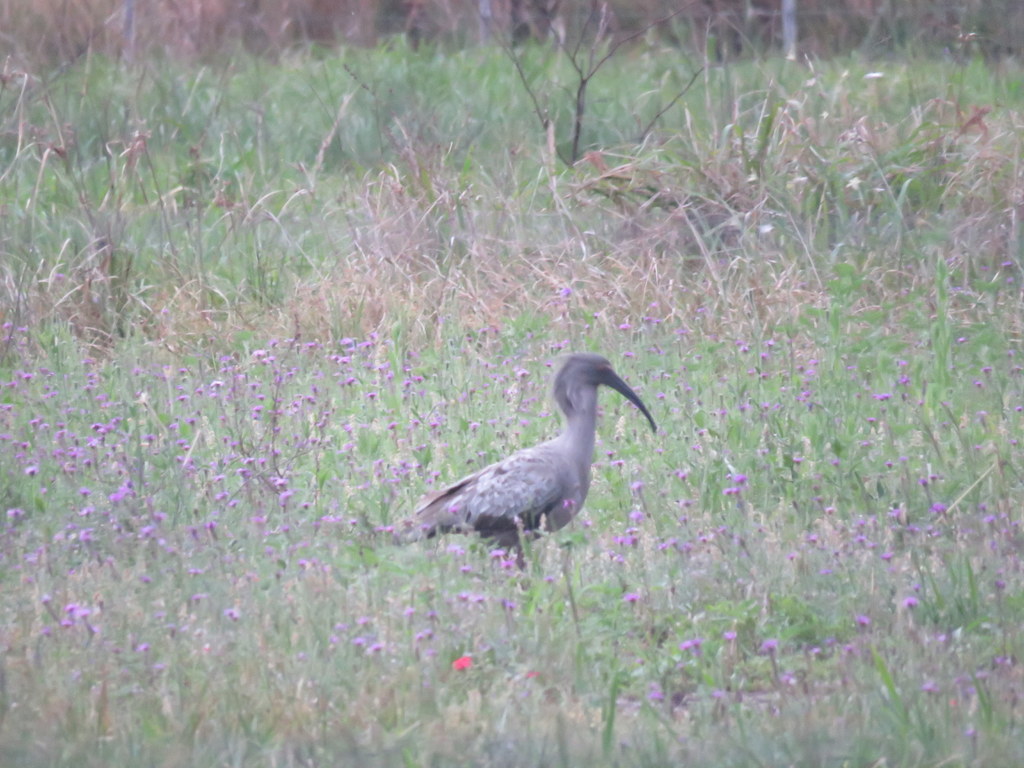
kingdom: Animalia
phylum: Chordata
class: Aves
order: Pelecaniformes
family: Threskiornithidae
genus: Theristicus
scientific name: Theristicus caerulescens
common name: Plumbeous ibis
